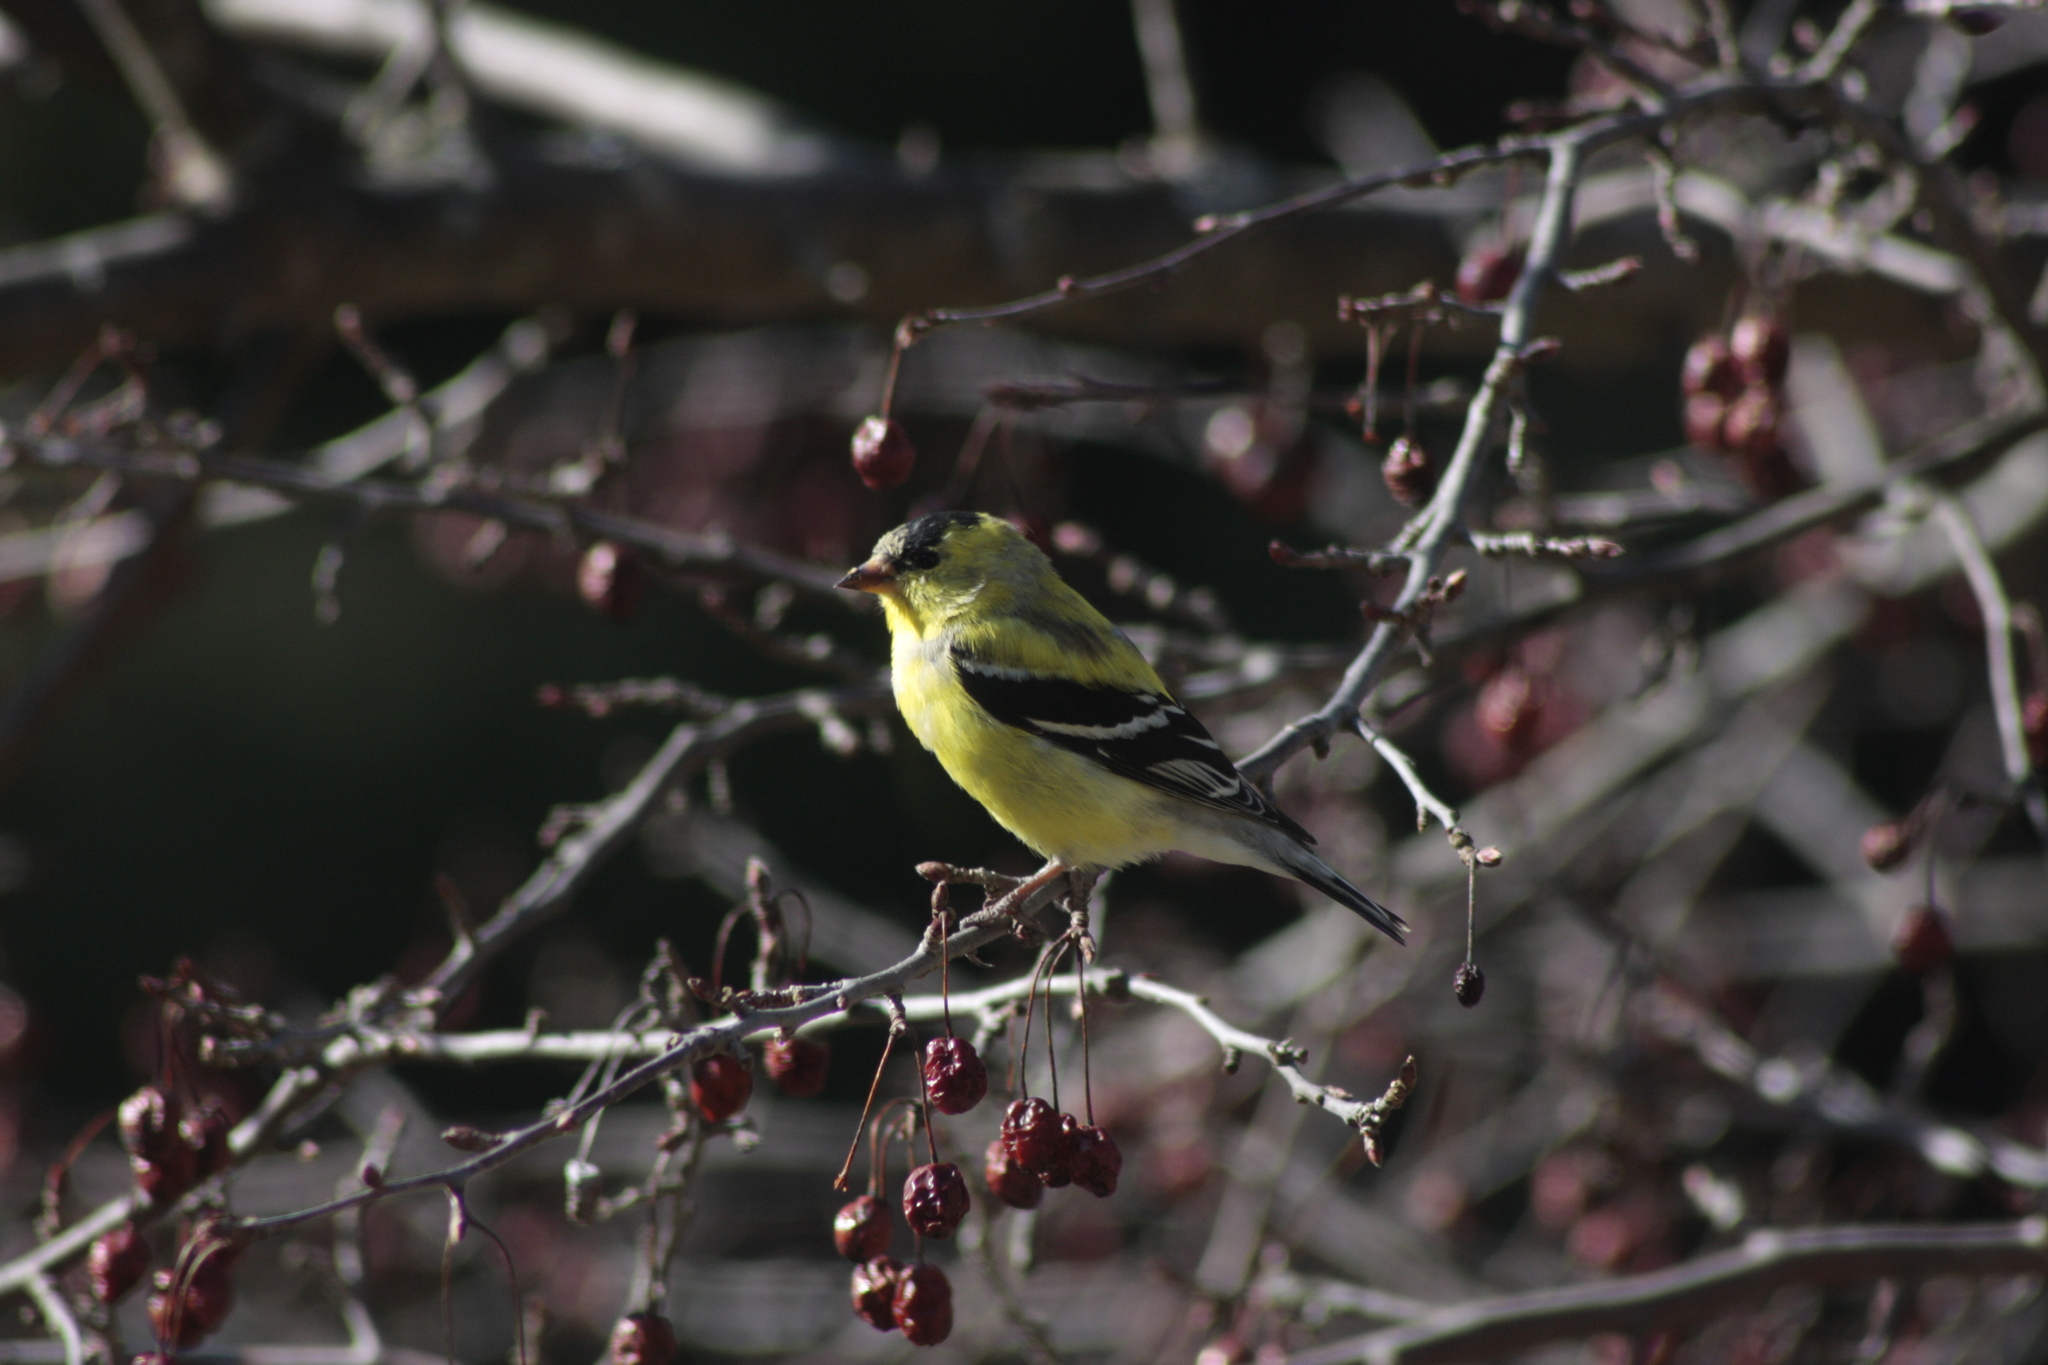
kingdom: Animalia
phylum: Chordata
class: Aves
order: Passeriformes
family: Fringillidae
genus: Spinus
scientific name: Spinus tristis
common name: American goldfinch
